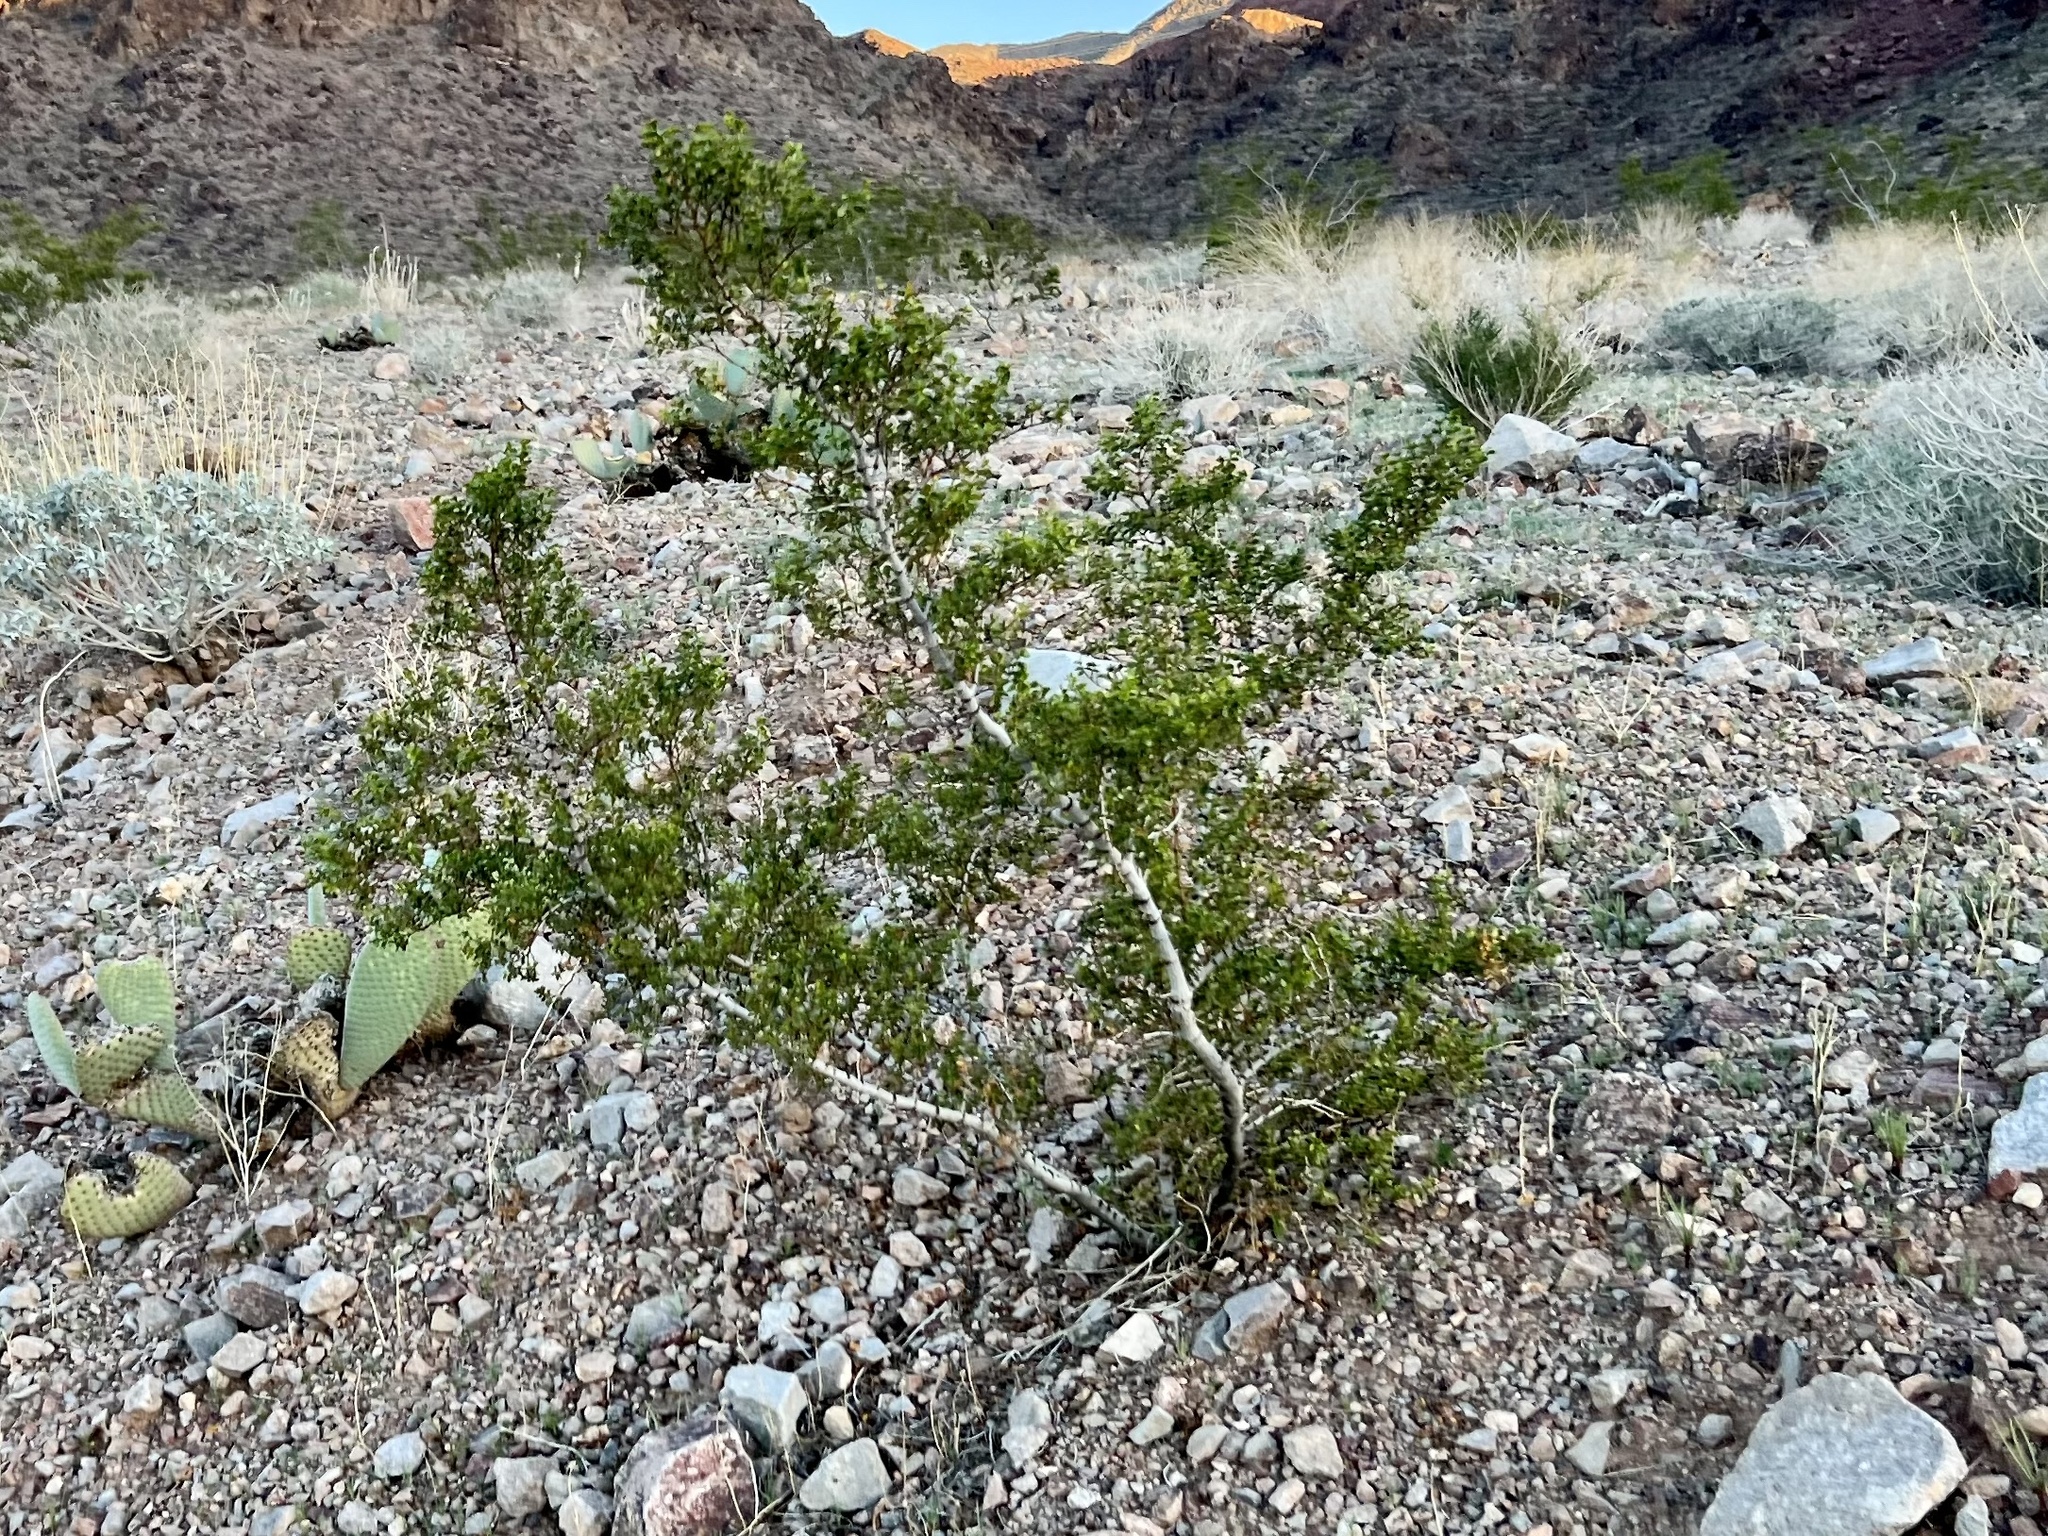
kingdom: Plantae
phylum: Tracheophyta
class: Magnoliopsida
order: Zygophyllales
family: Zygophyllaceae
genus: Larrea
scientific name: Larrea tridentata
